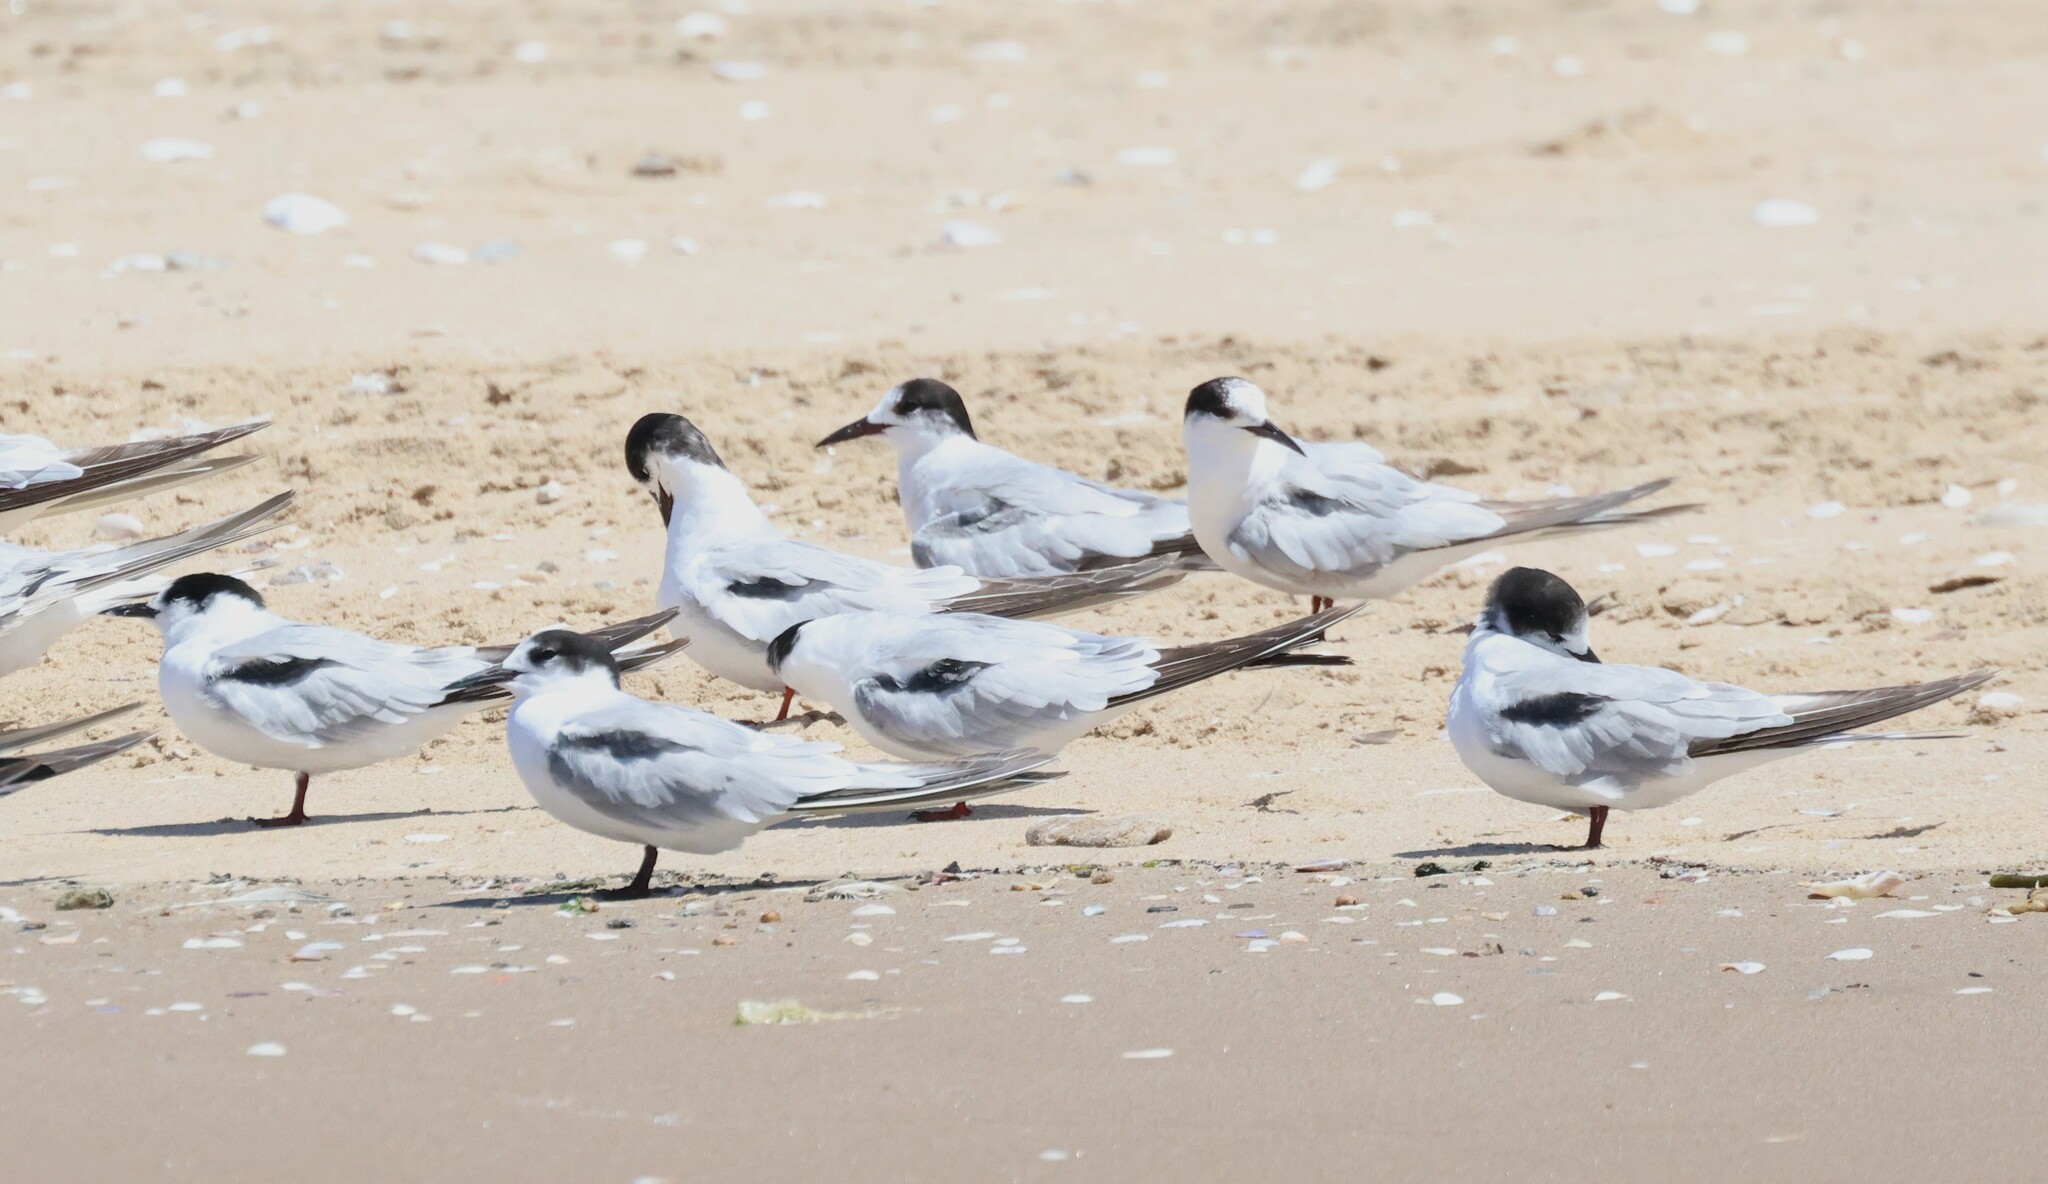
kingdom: Animalia
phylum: Chordata
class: Aves
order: Charadriiformes
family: Laridae
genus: Sterna
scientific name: Sterna hirundo
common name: Common tern
